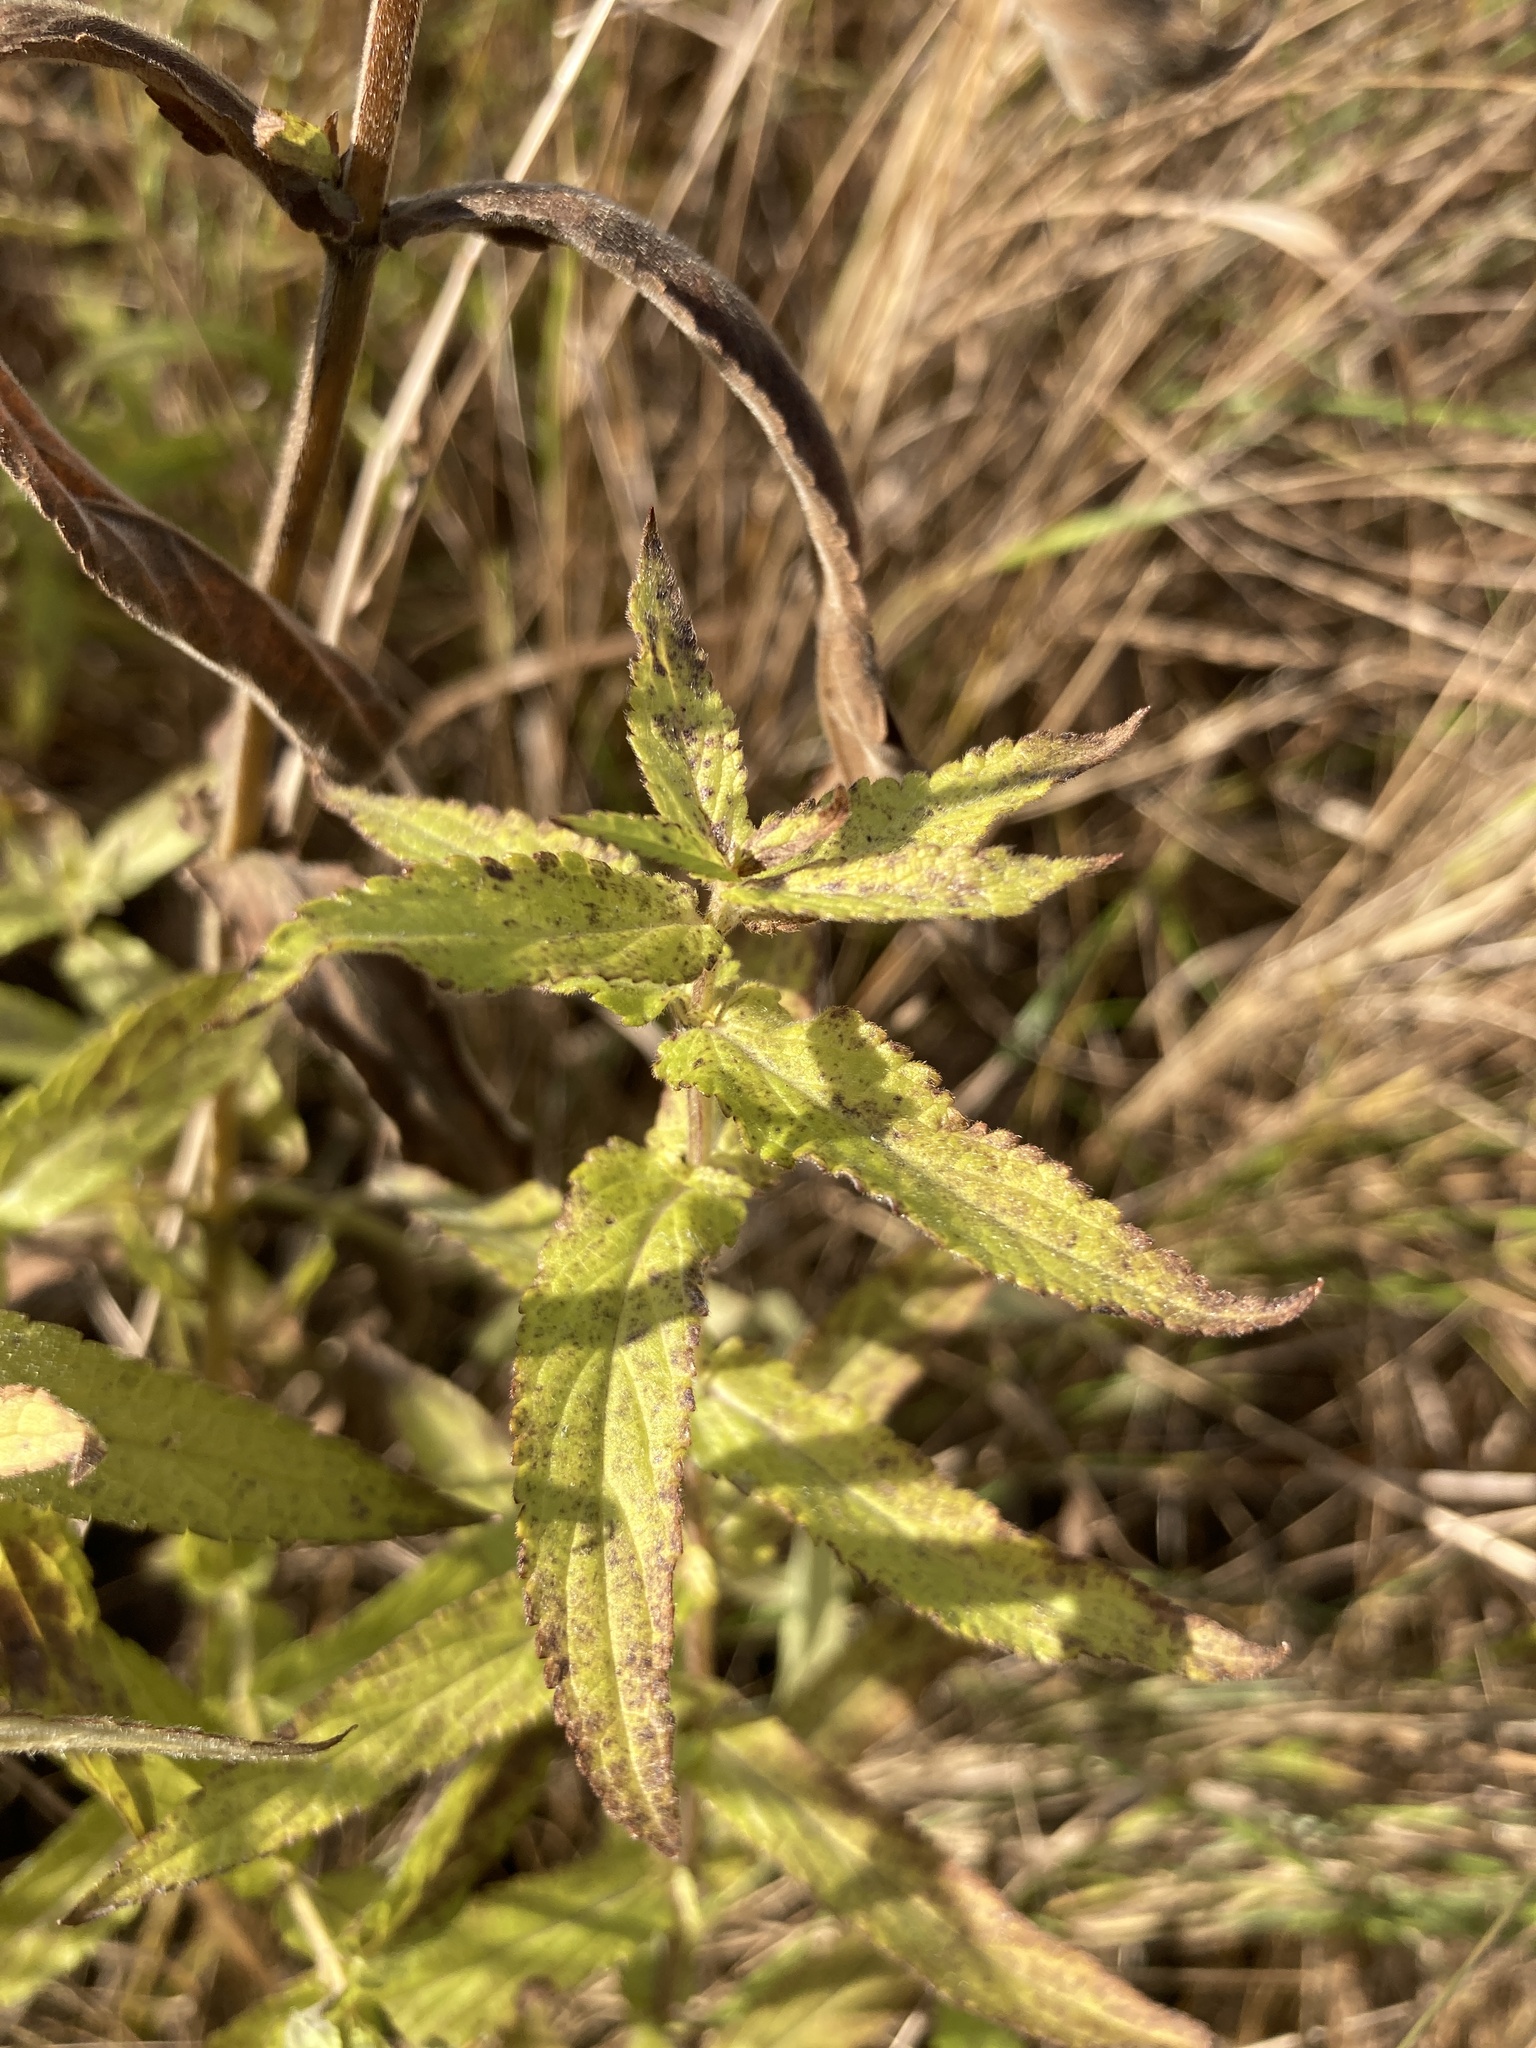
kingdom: Plantae
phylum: Tracheophyta
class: Magnoliopsida
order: Lamiales
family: Lamiaceae
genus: Stachys
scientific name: Stachys palustris
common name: Marsh woundwort
